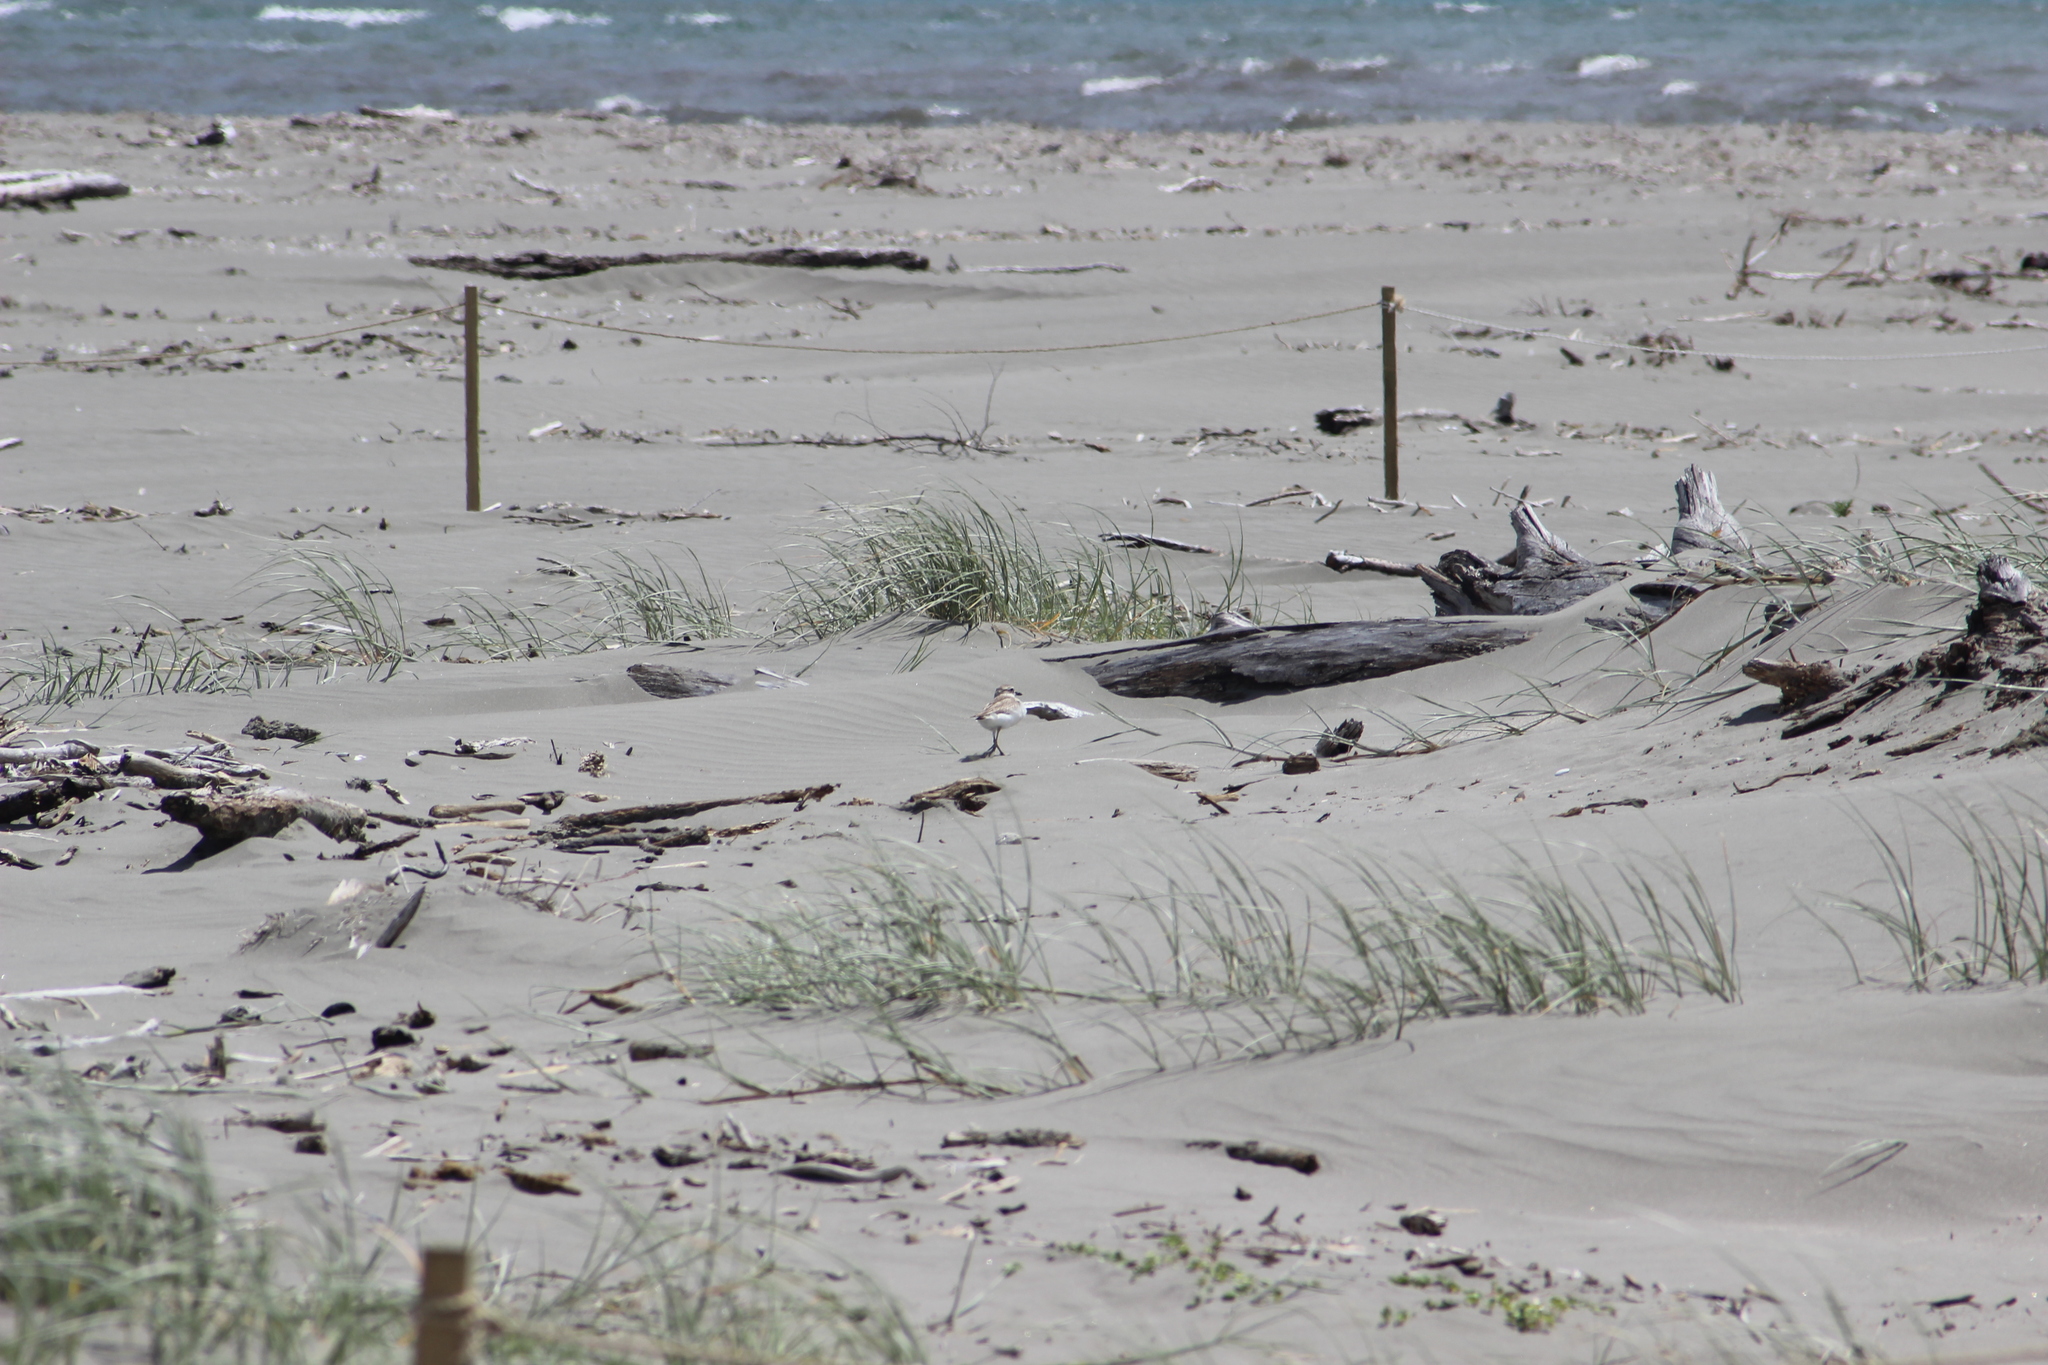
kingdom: Animalia
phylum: Chordata
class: Aves
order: Charadriiformes
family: Charadriidae
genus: Anarhynchus
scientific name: Anarhynchus
